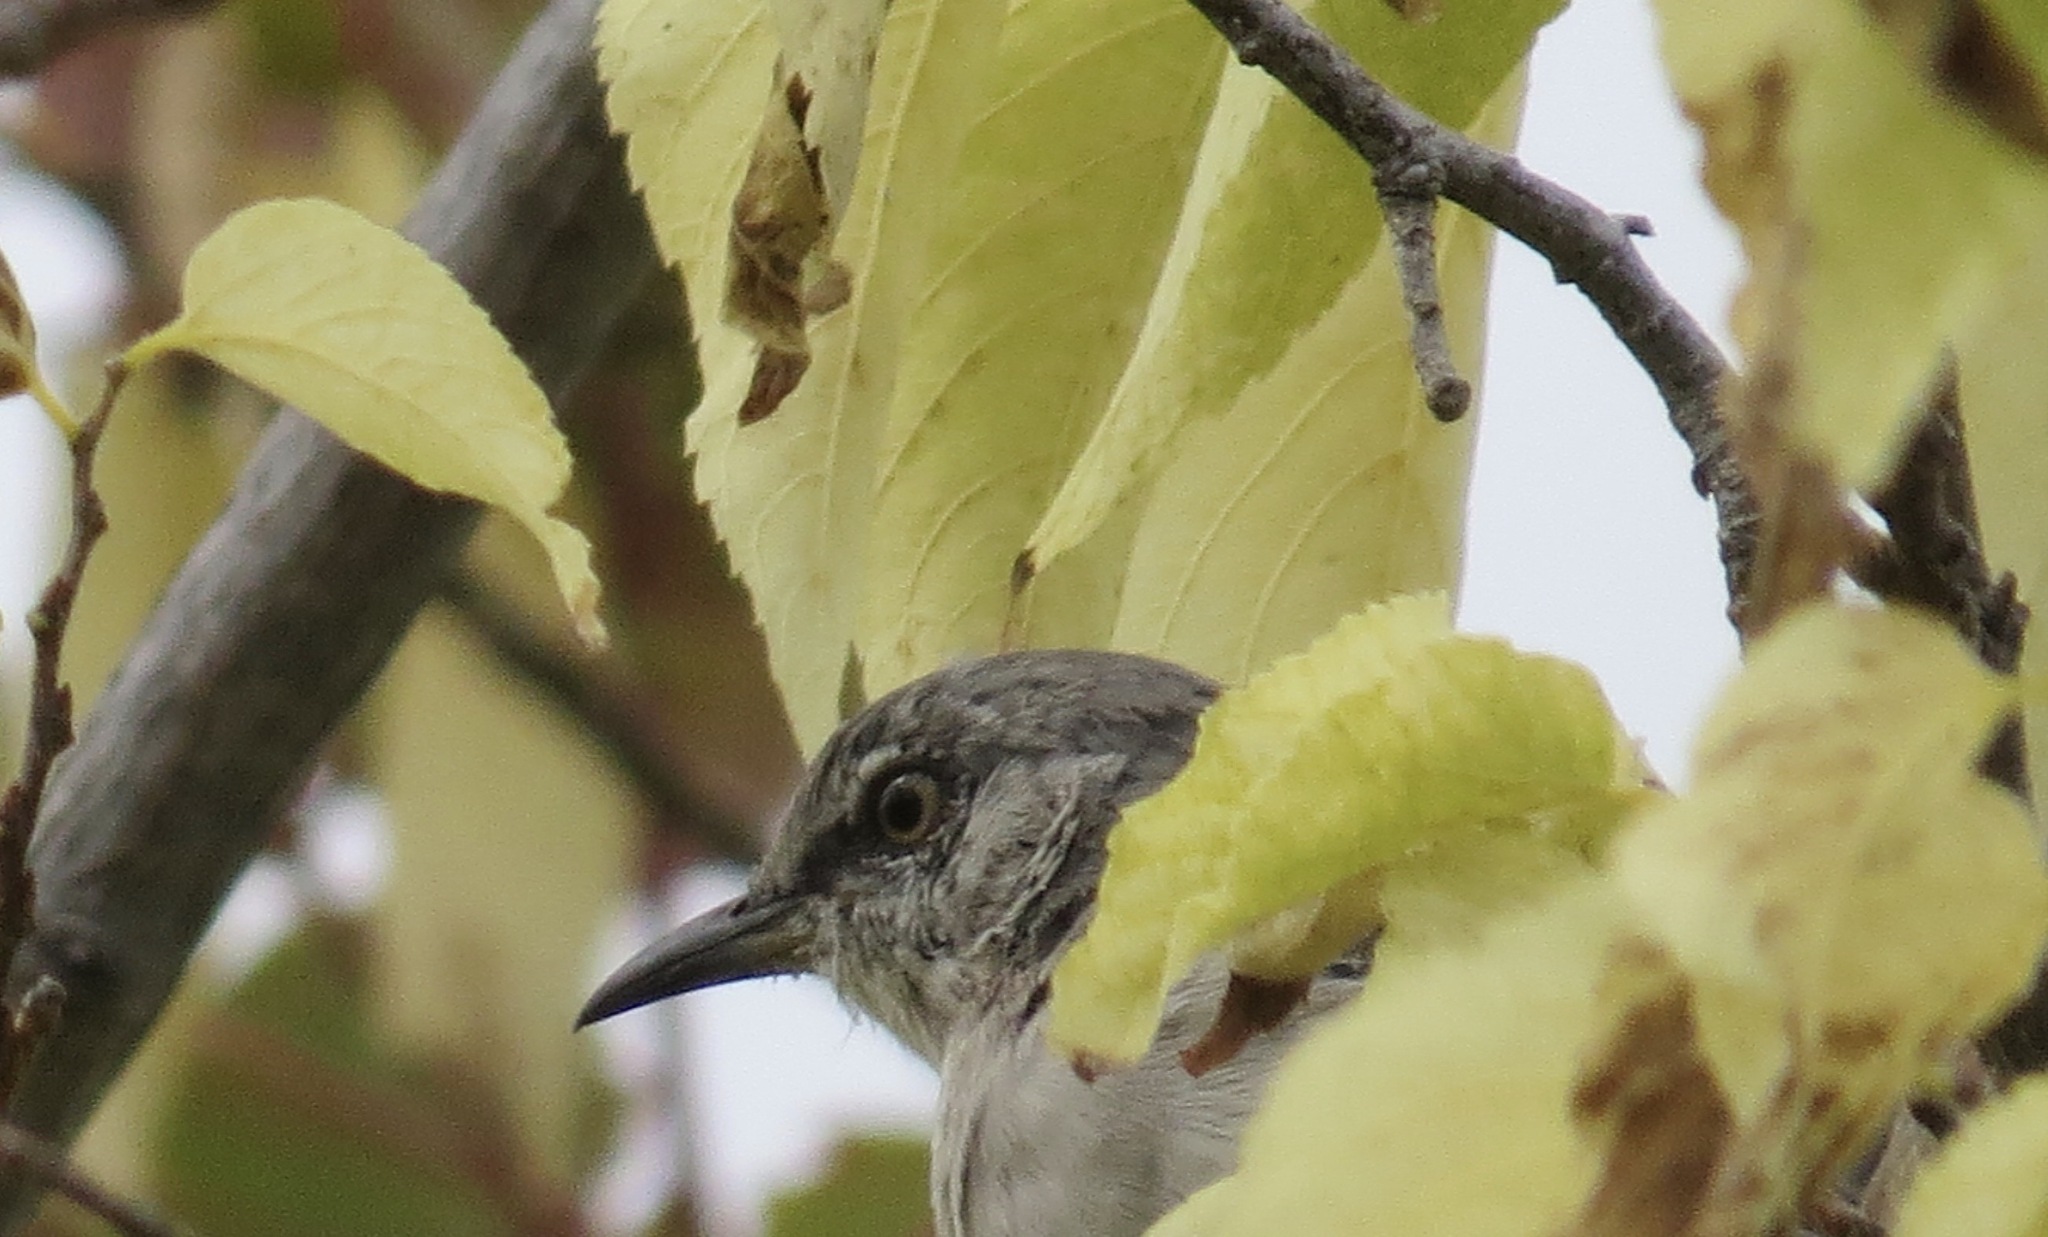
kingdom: Animalia
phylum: Chordata
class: Aves
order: Passeriformes
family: Mimidae
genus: Mimus
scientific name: Mimus polyglottos
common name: Northern mockingbird
